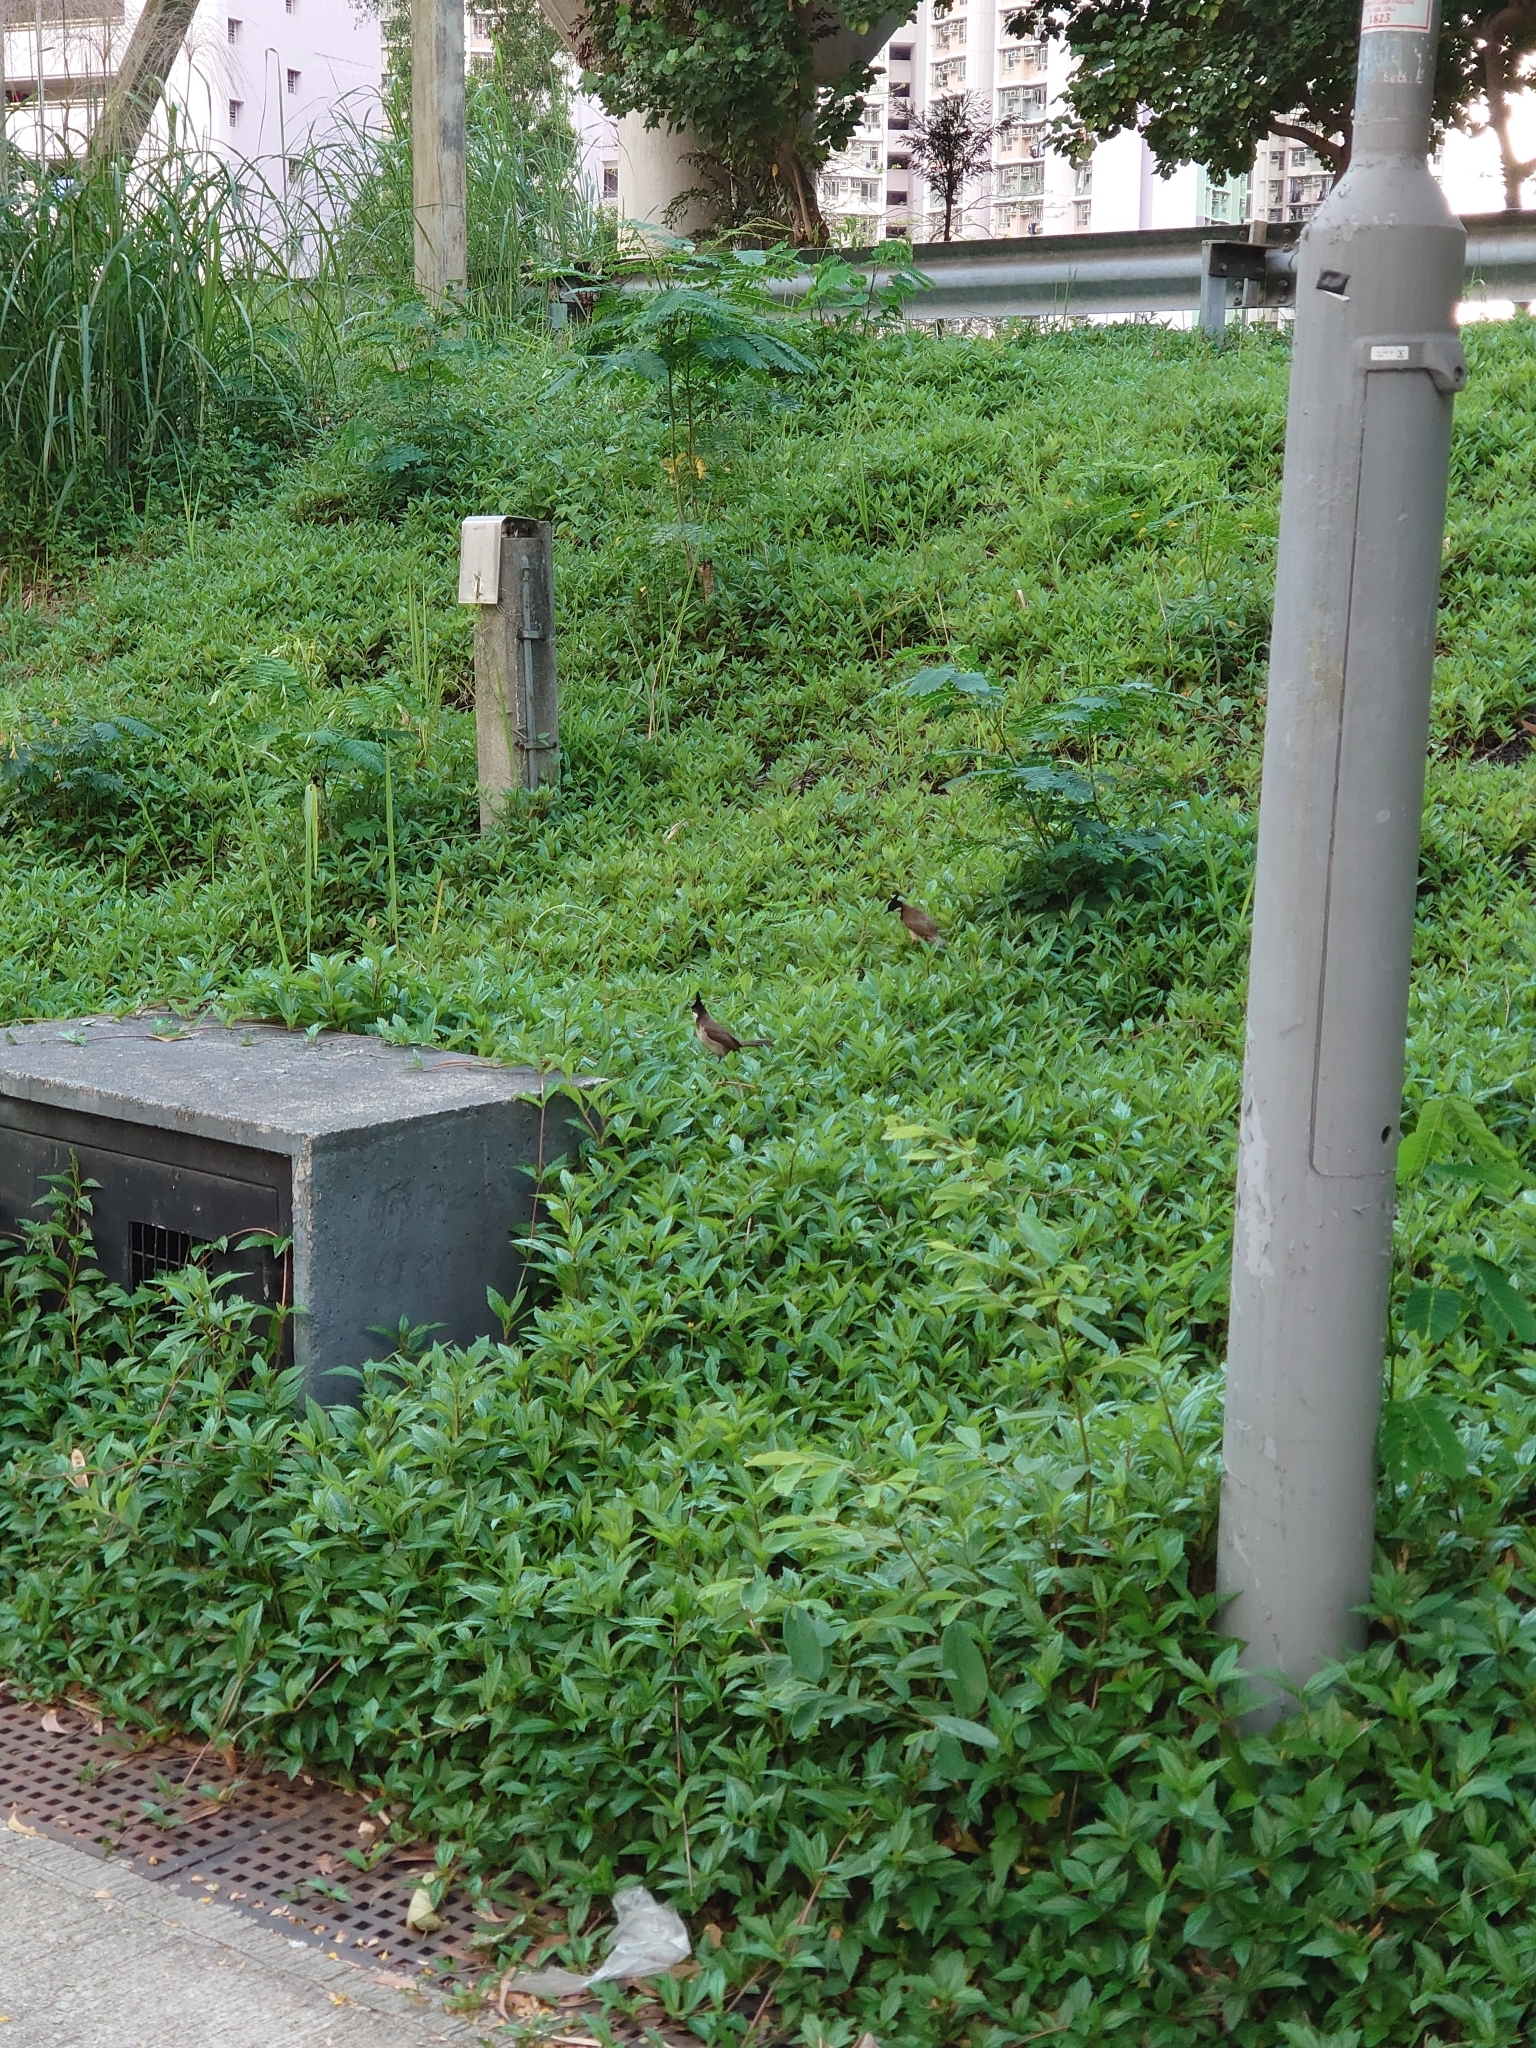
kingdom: Animalia
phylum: Chordata
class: Aves
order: Passeriformes
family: Pycnonotidae
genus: Pycnonotus
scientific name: Pycnonotus jocosus
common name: Red-whiskered bulbul
